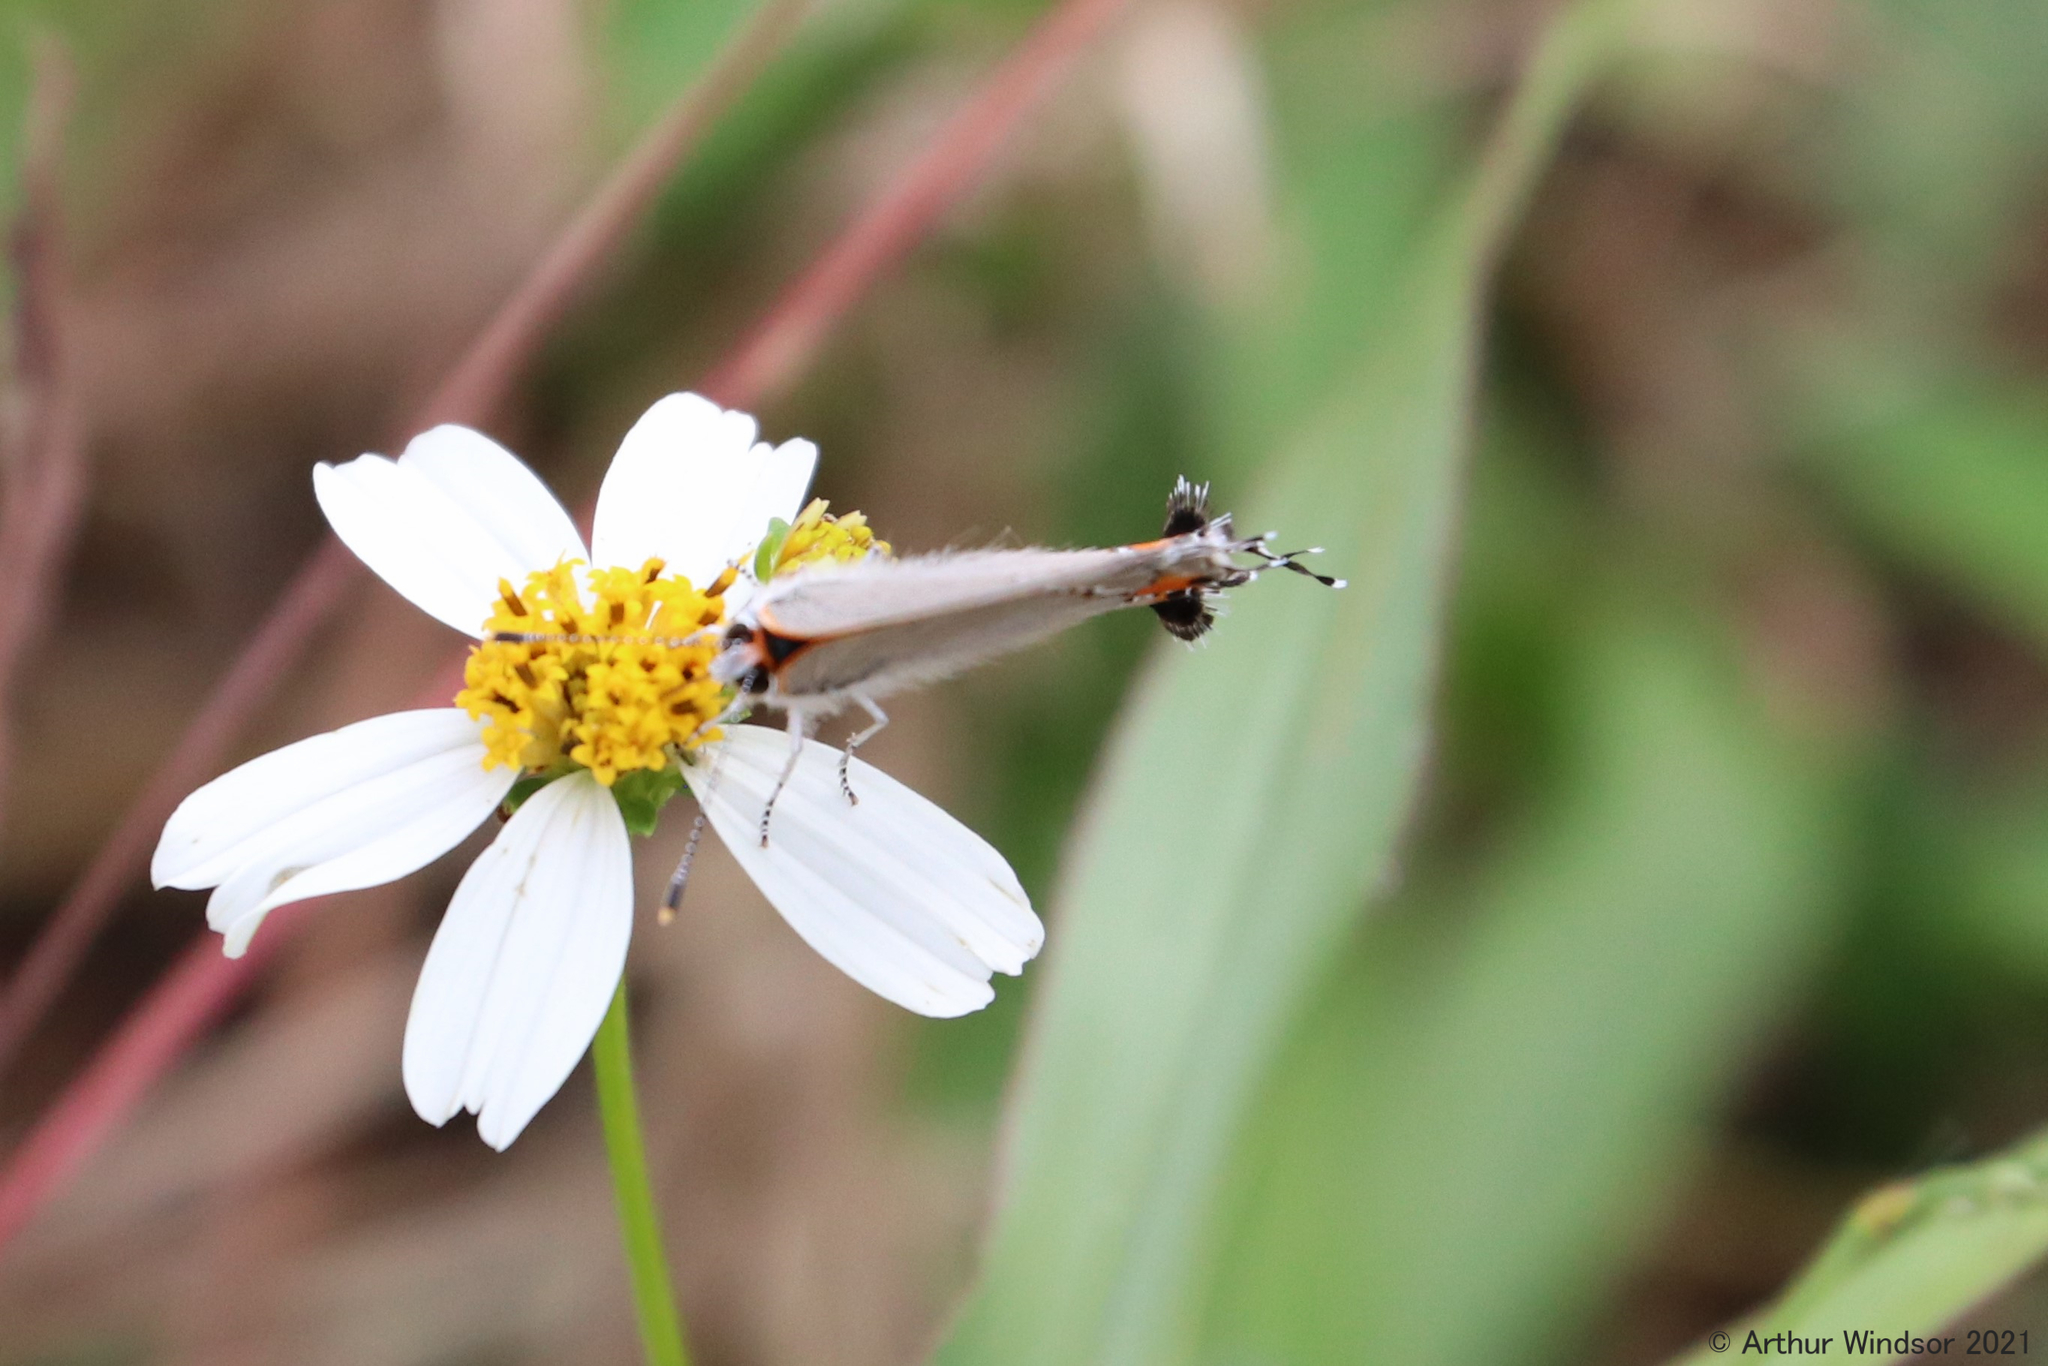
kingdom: Animalia
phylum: Arthropoda
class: Insecta
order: Lepidoptera
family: Lycaenidae
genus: Strymon
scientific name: Strymon melinus
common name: Gray hairstreak
